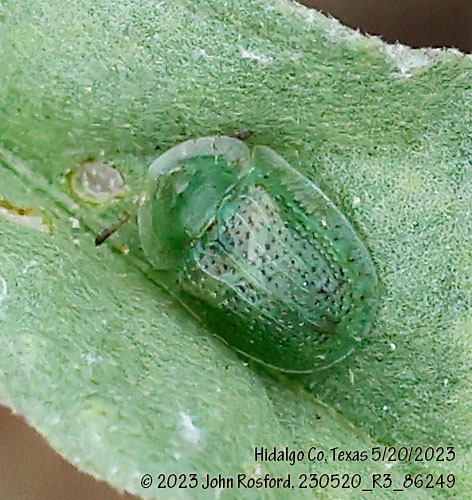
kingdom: Animalia
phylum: Arthropoda
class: Insecta
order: Coleoptera
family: Chrysomelidae
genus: Gratiana
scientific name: Gratiana pallidula
